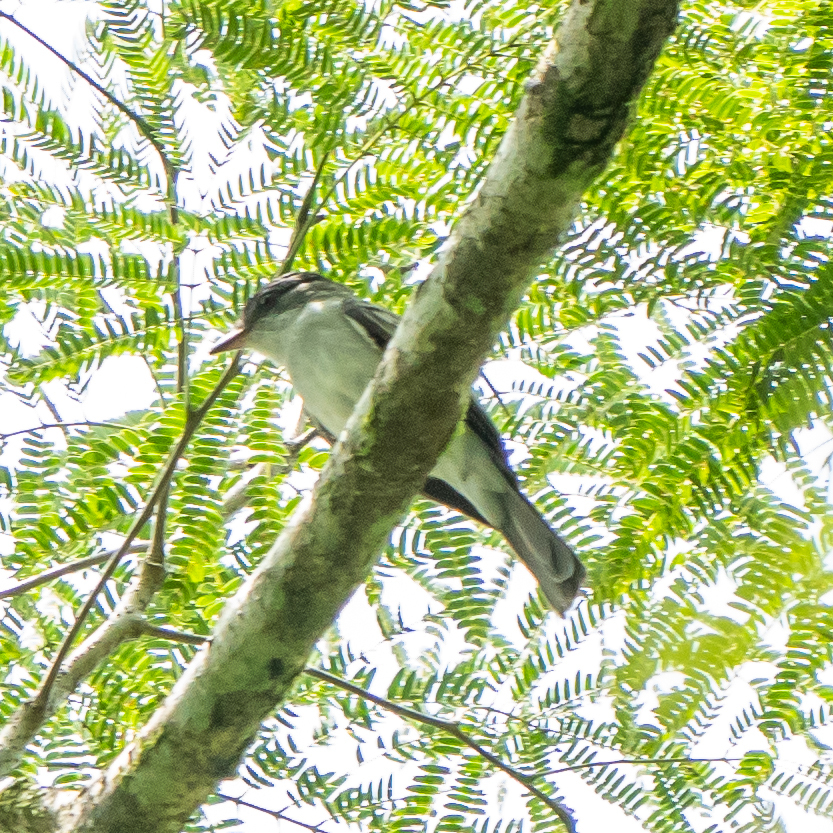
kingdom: Animalia
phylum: Chordata
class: Aves
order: Passeriformes
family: Tyrannidae
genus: Sirystes
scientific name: Sirystes sibilator
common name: Sirystes
